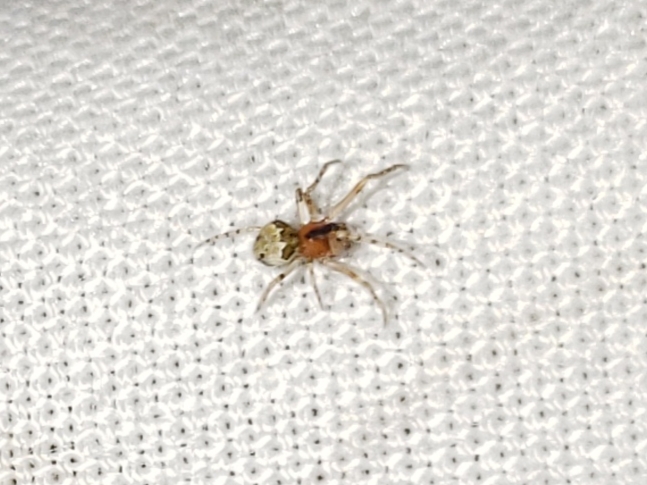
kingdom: Animalia
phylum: Arthropoda
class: Arachnida
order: Araneae
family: Theridiidae
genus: Wamba
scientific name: Wamba crispulus
